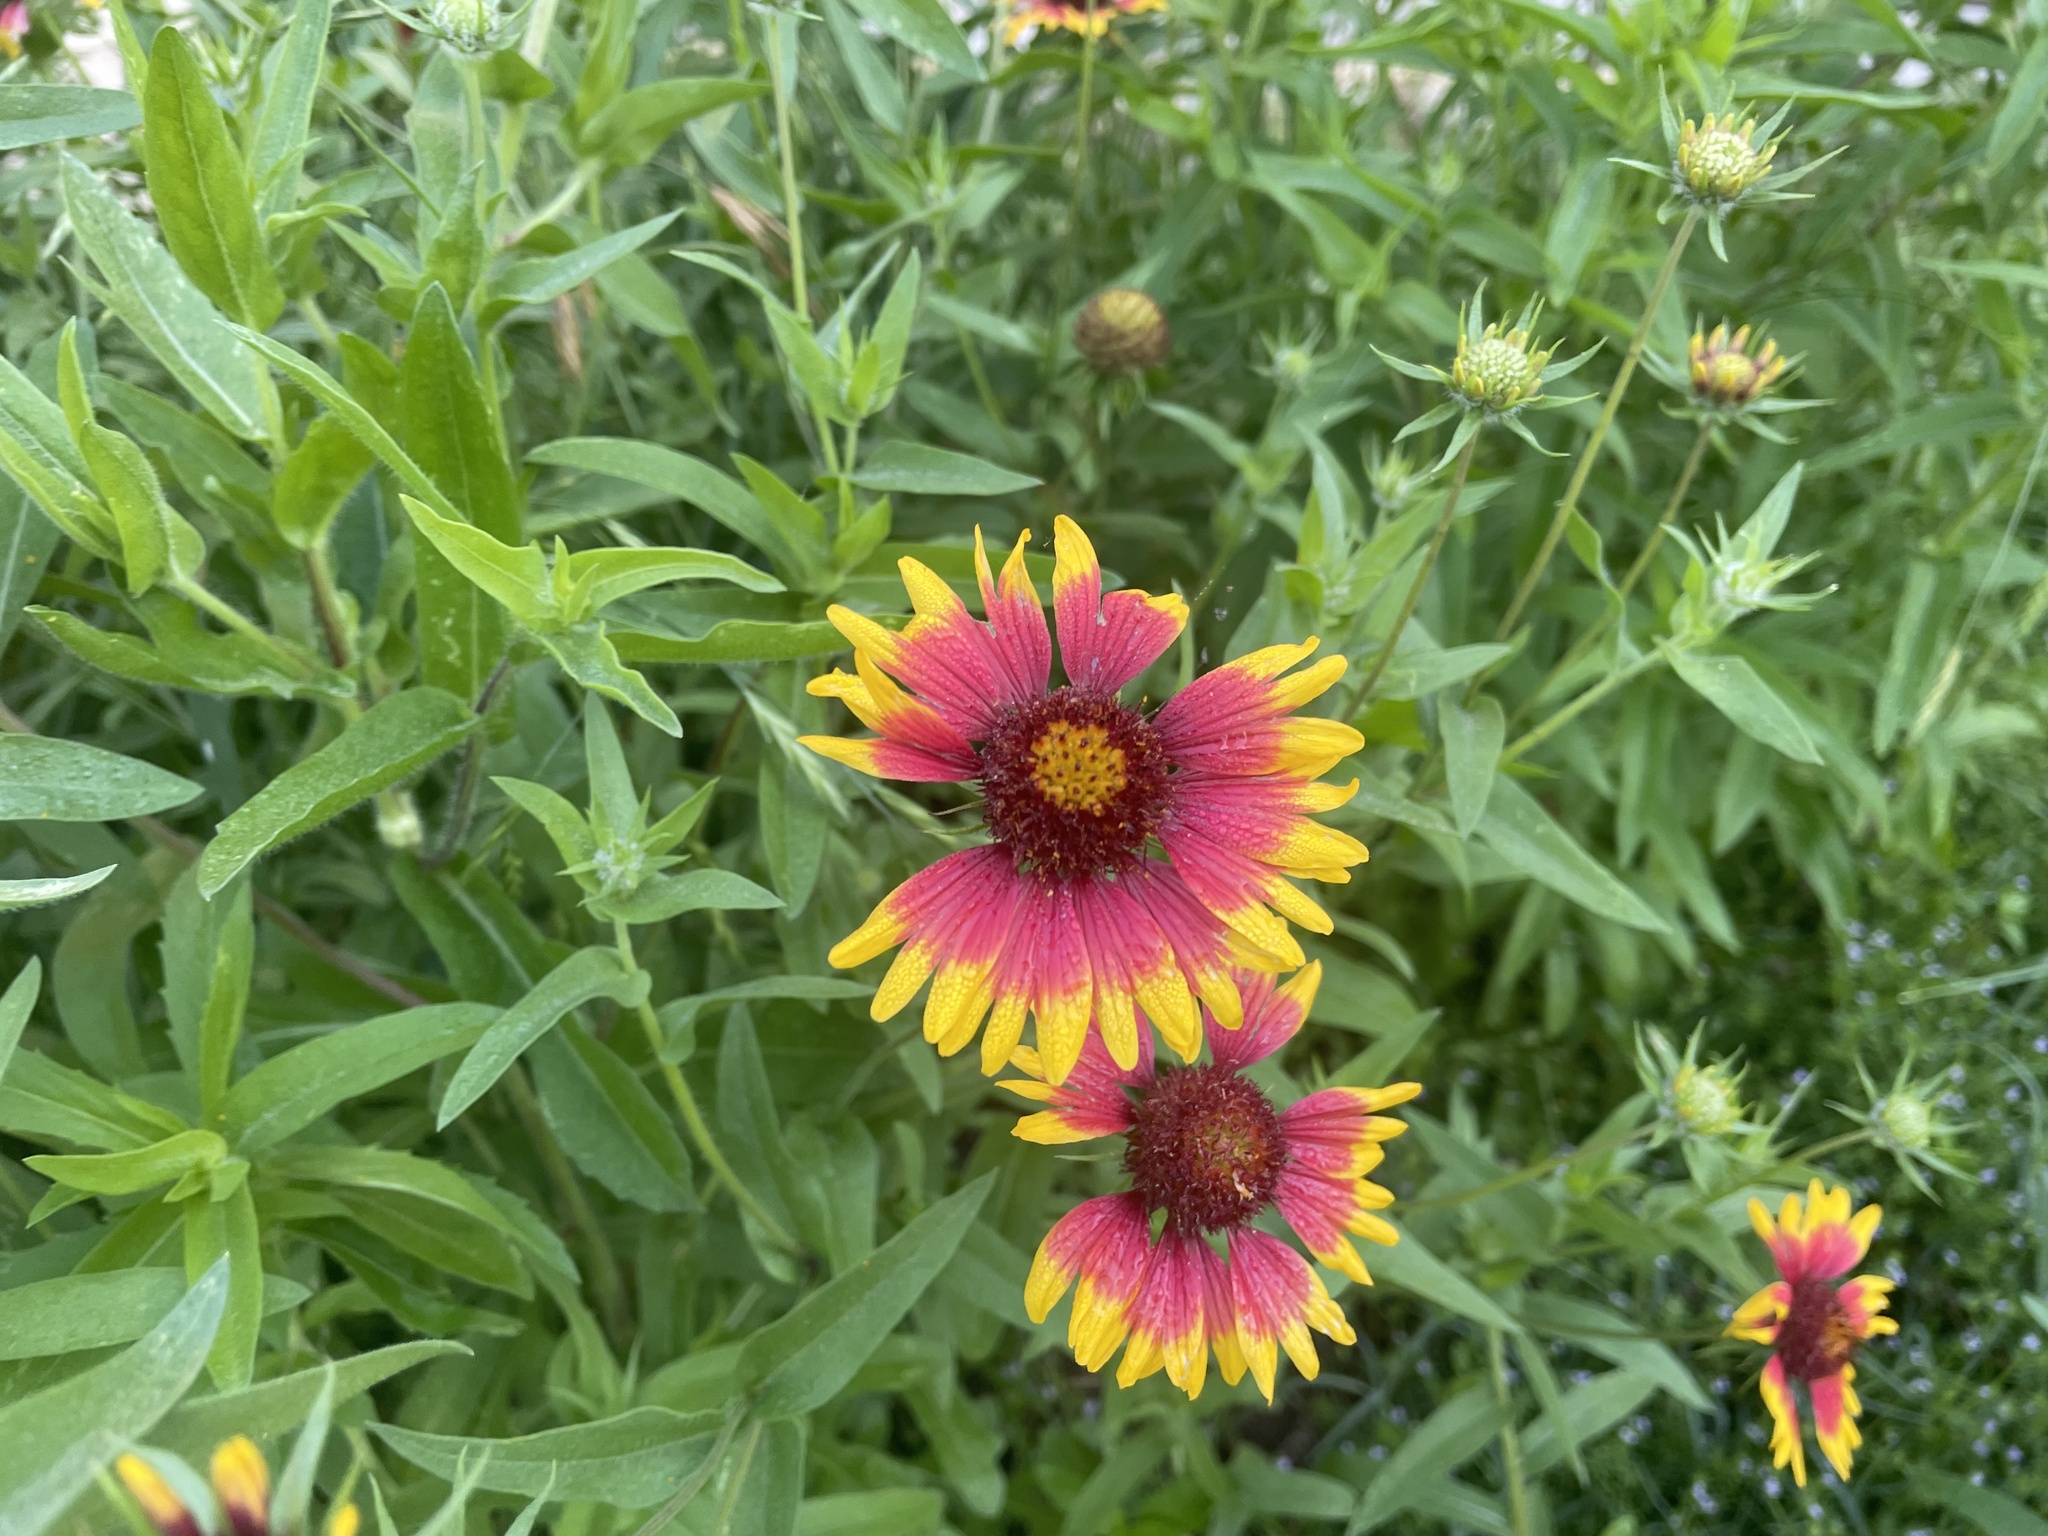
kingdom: Plantae
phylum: Tracheophyta
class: Magnoliopsida
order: Asterales
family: Asteraceae
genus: Gaillardia
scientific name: Gaillardia pulchella
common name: Firewheel
